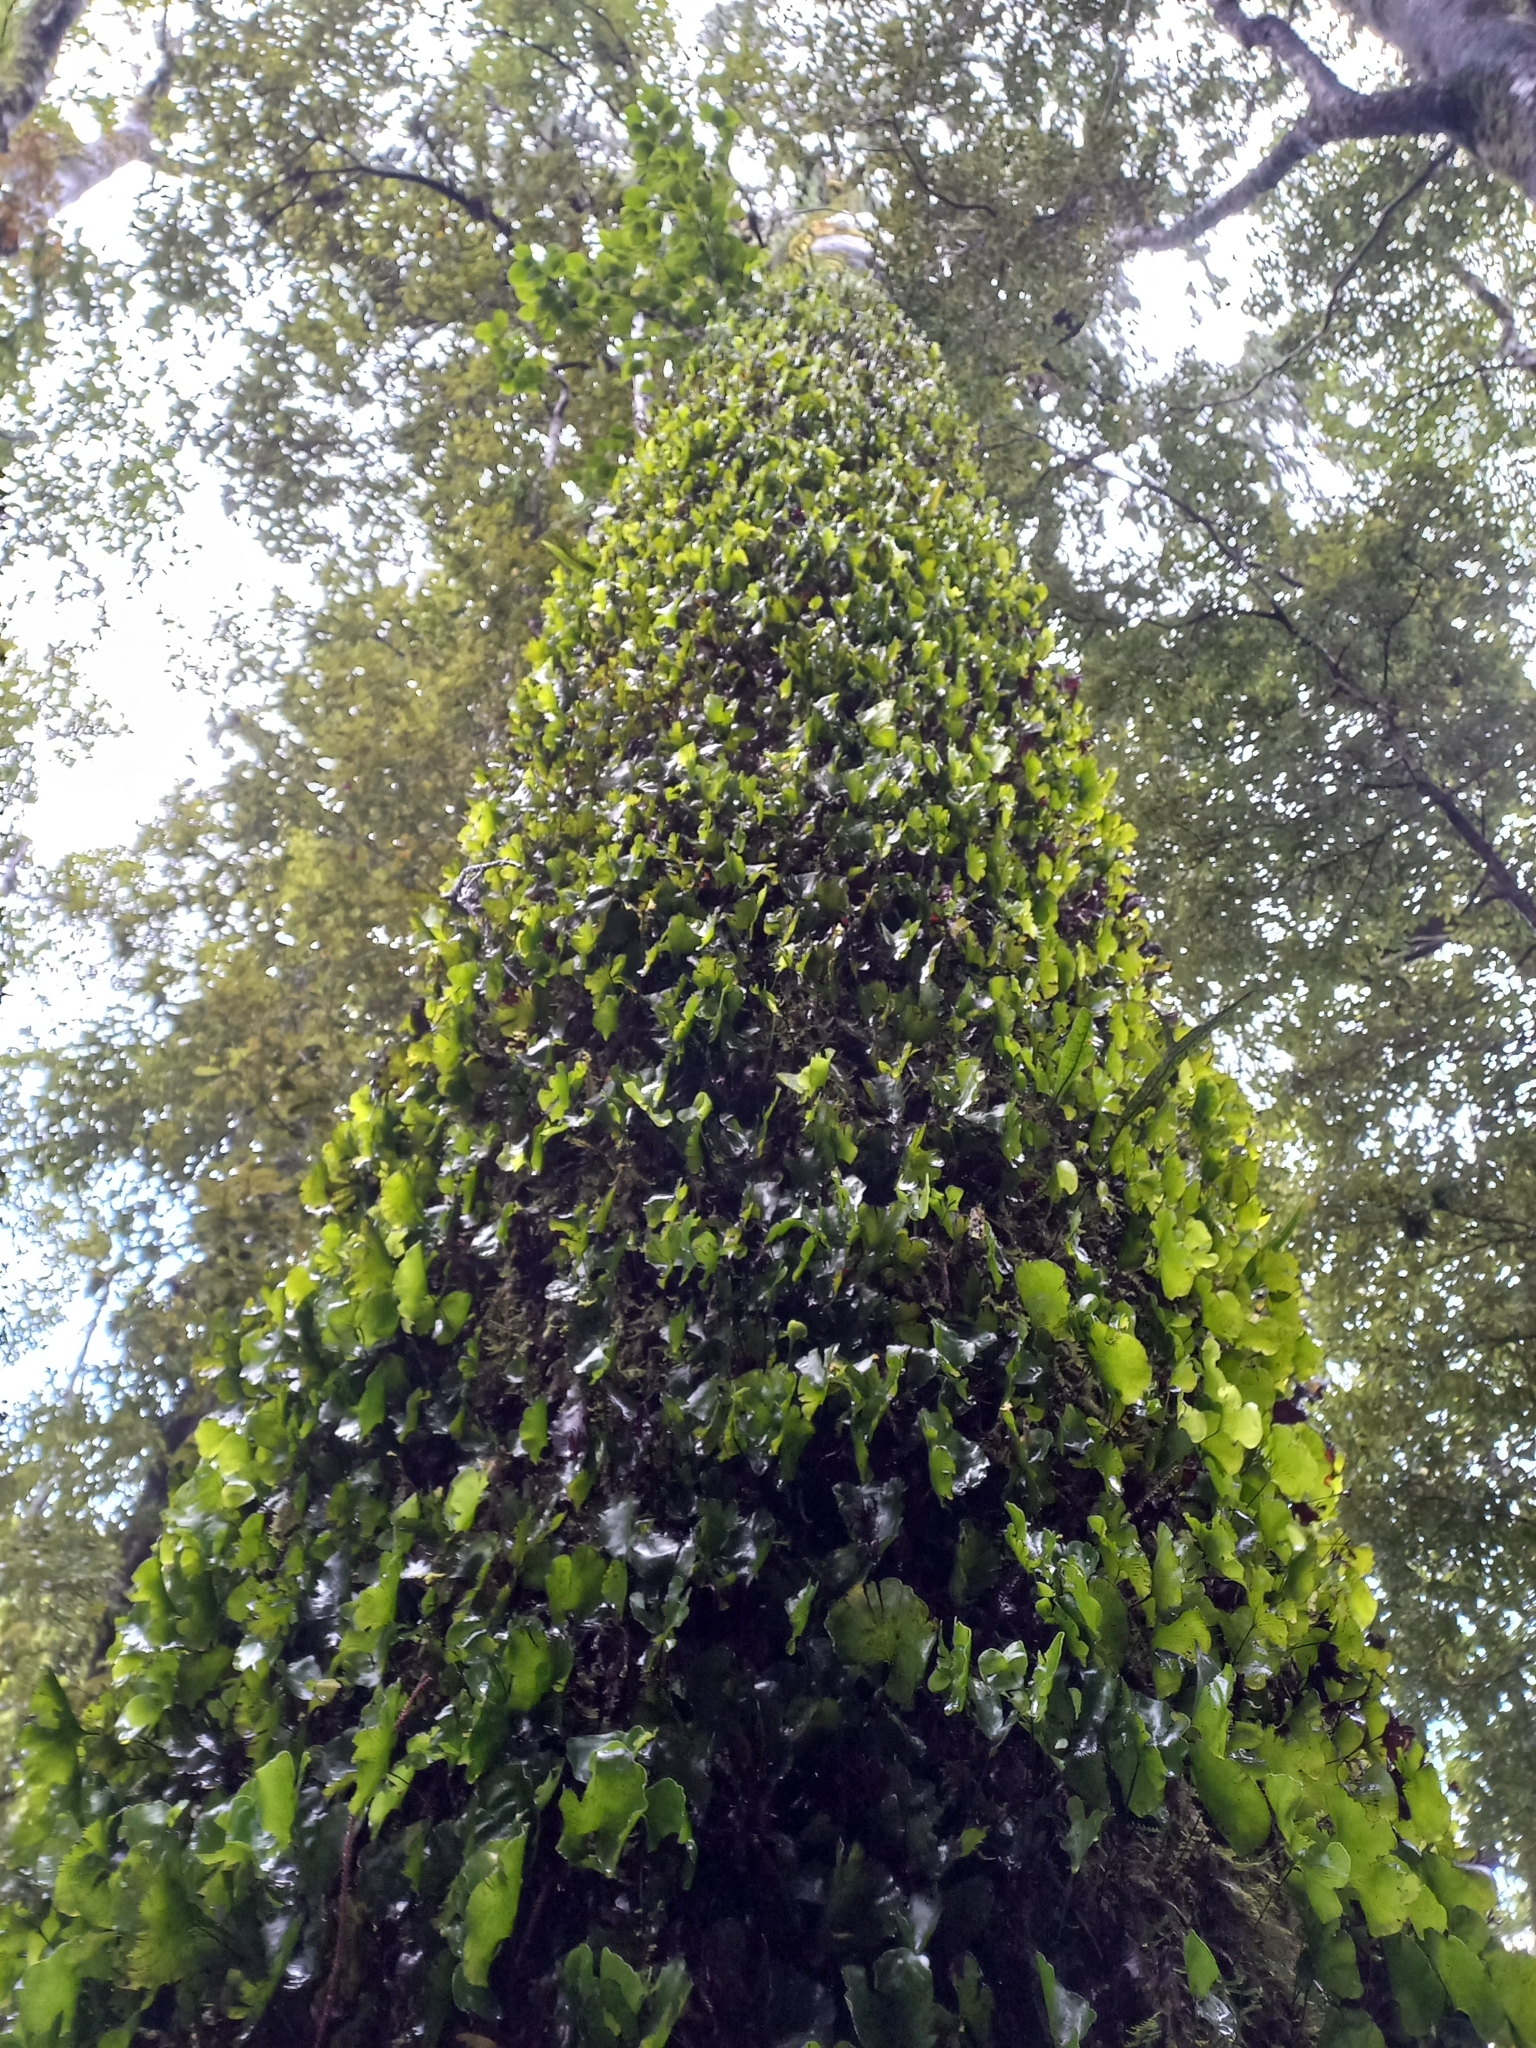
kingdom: Plantae
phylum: Tracheophyta
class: Polypodiopsida
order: Hymenophyllales
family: Hymenophyllaceae
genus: Hymenophyllum
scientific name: Hymenophyllum nephrophyllum
